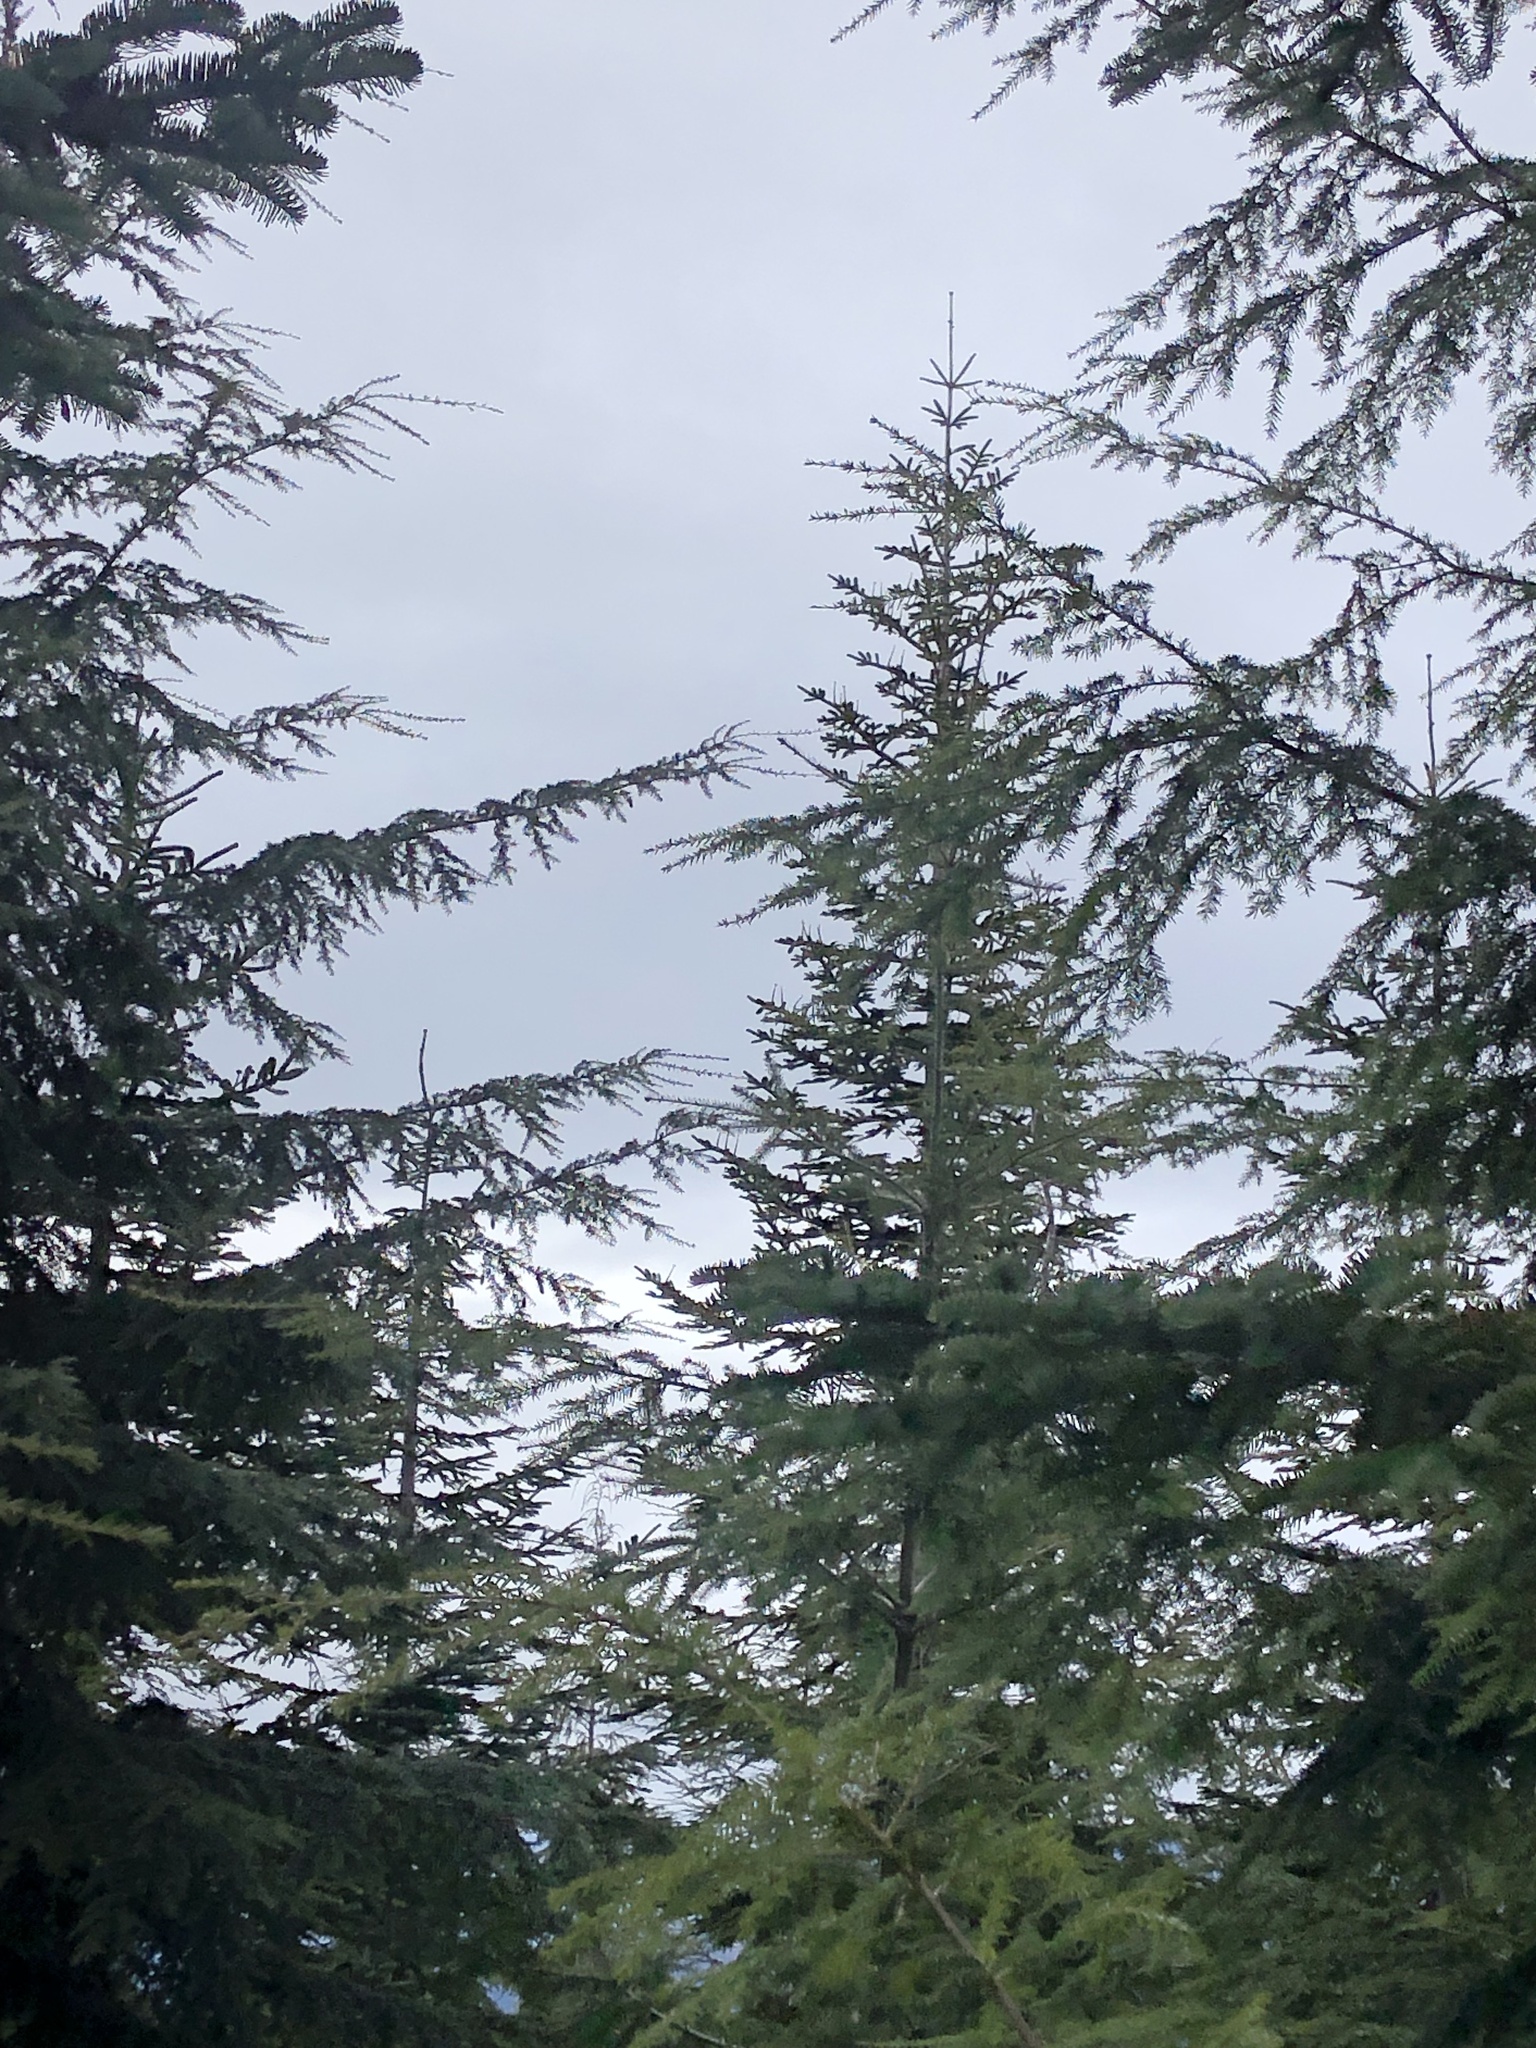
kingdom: Plantae
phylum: Tracheophyta
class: Pinopsida
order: Pinales
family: Pinaceae
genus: Abies
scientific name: Abies procera
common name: Noble fir
